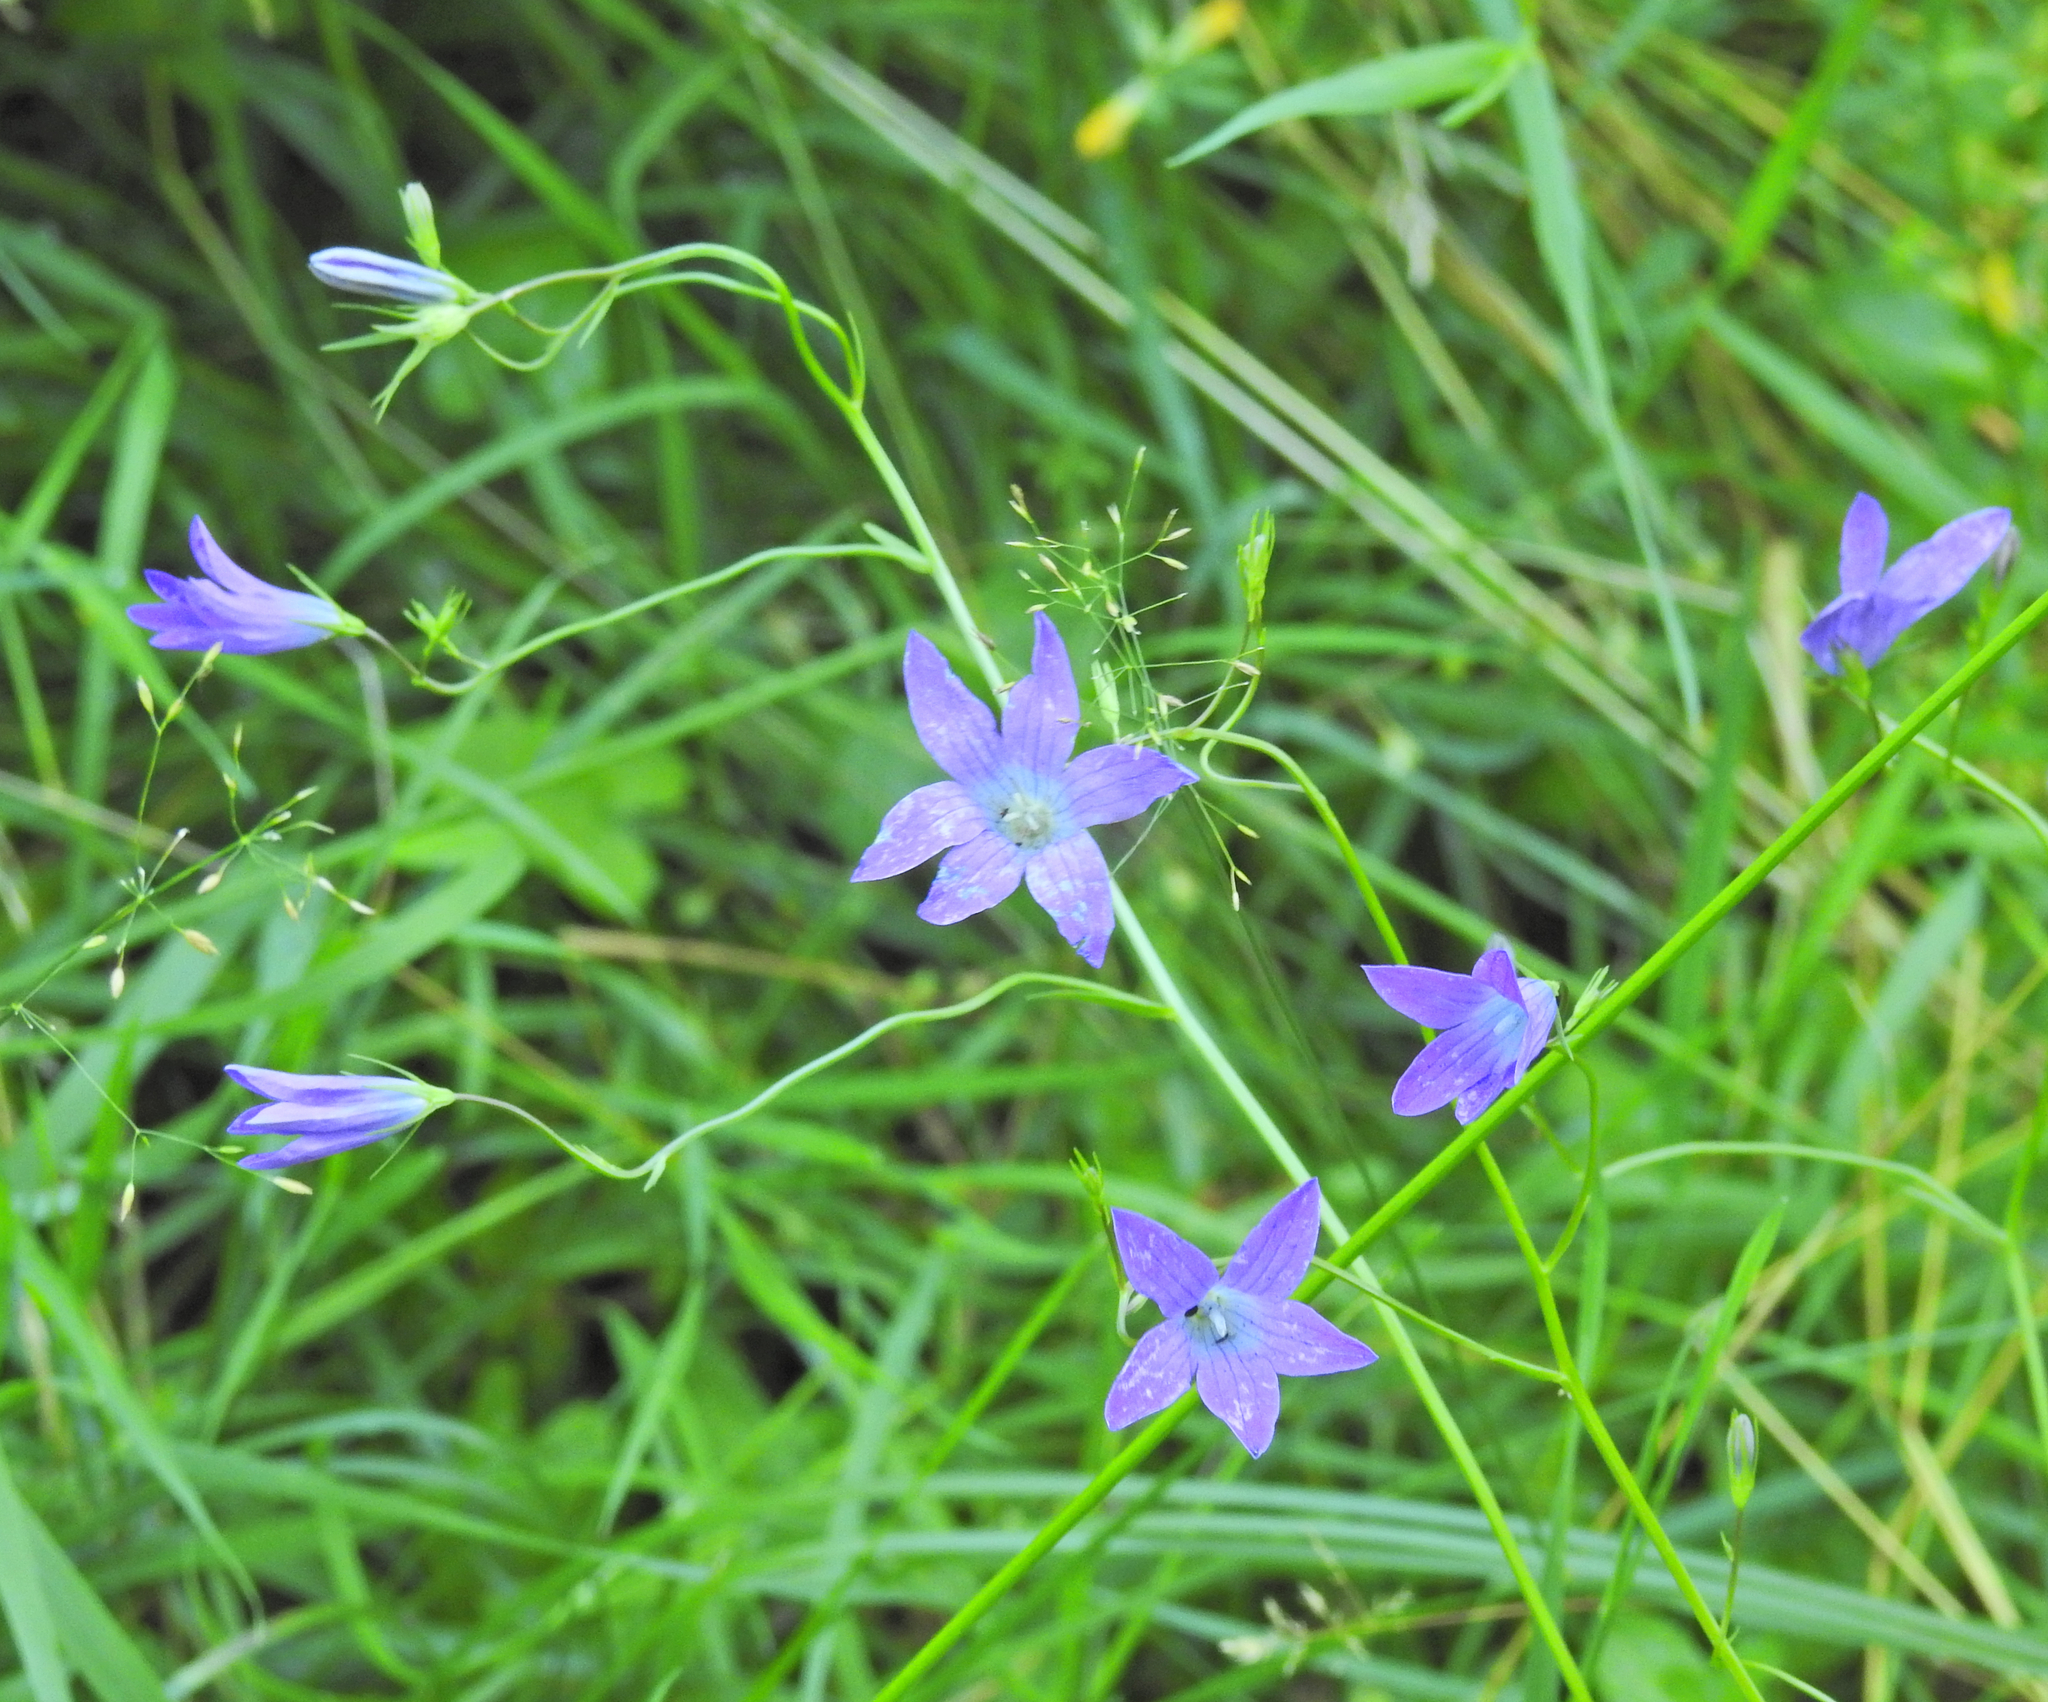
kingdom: Plantae
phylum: Tracheophyta
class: Magnoliopsida
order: Asterales
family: Campanulaceae
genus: Campanula
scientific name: Campanula patula
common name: Spreading bellflower
